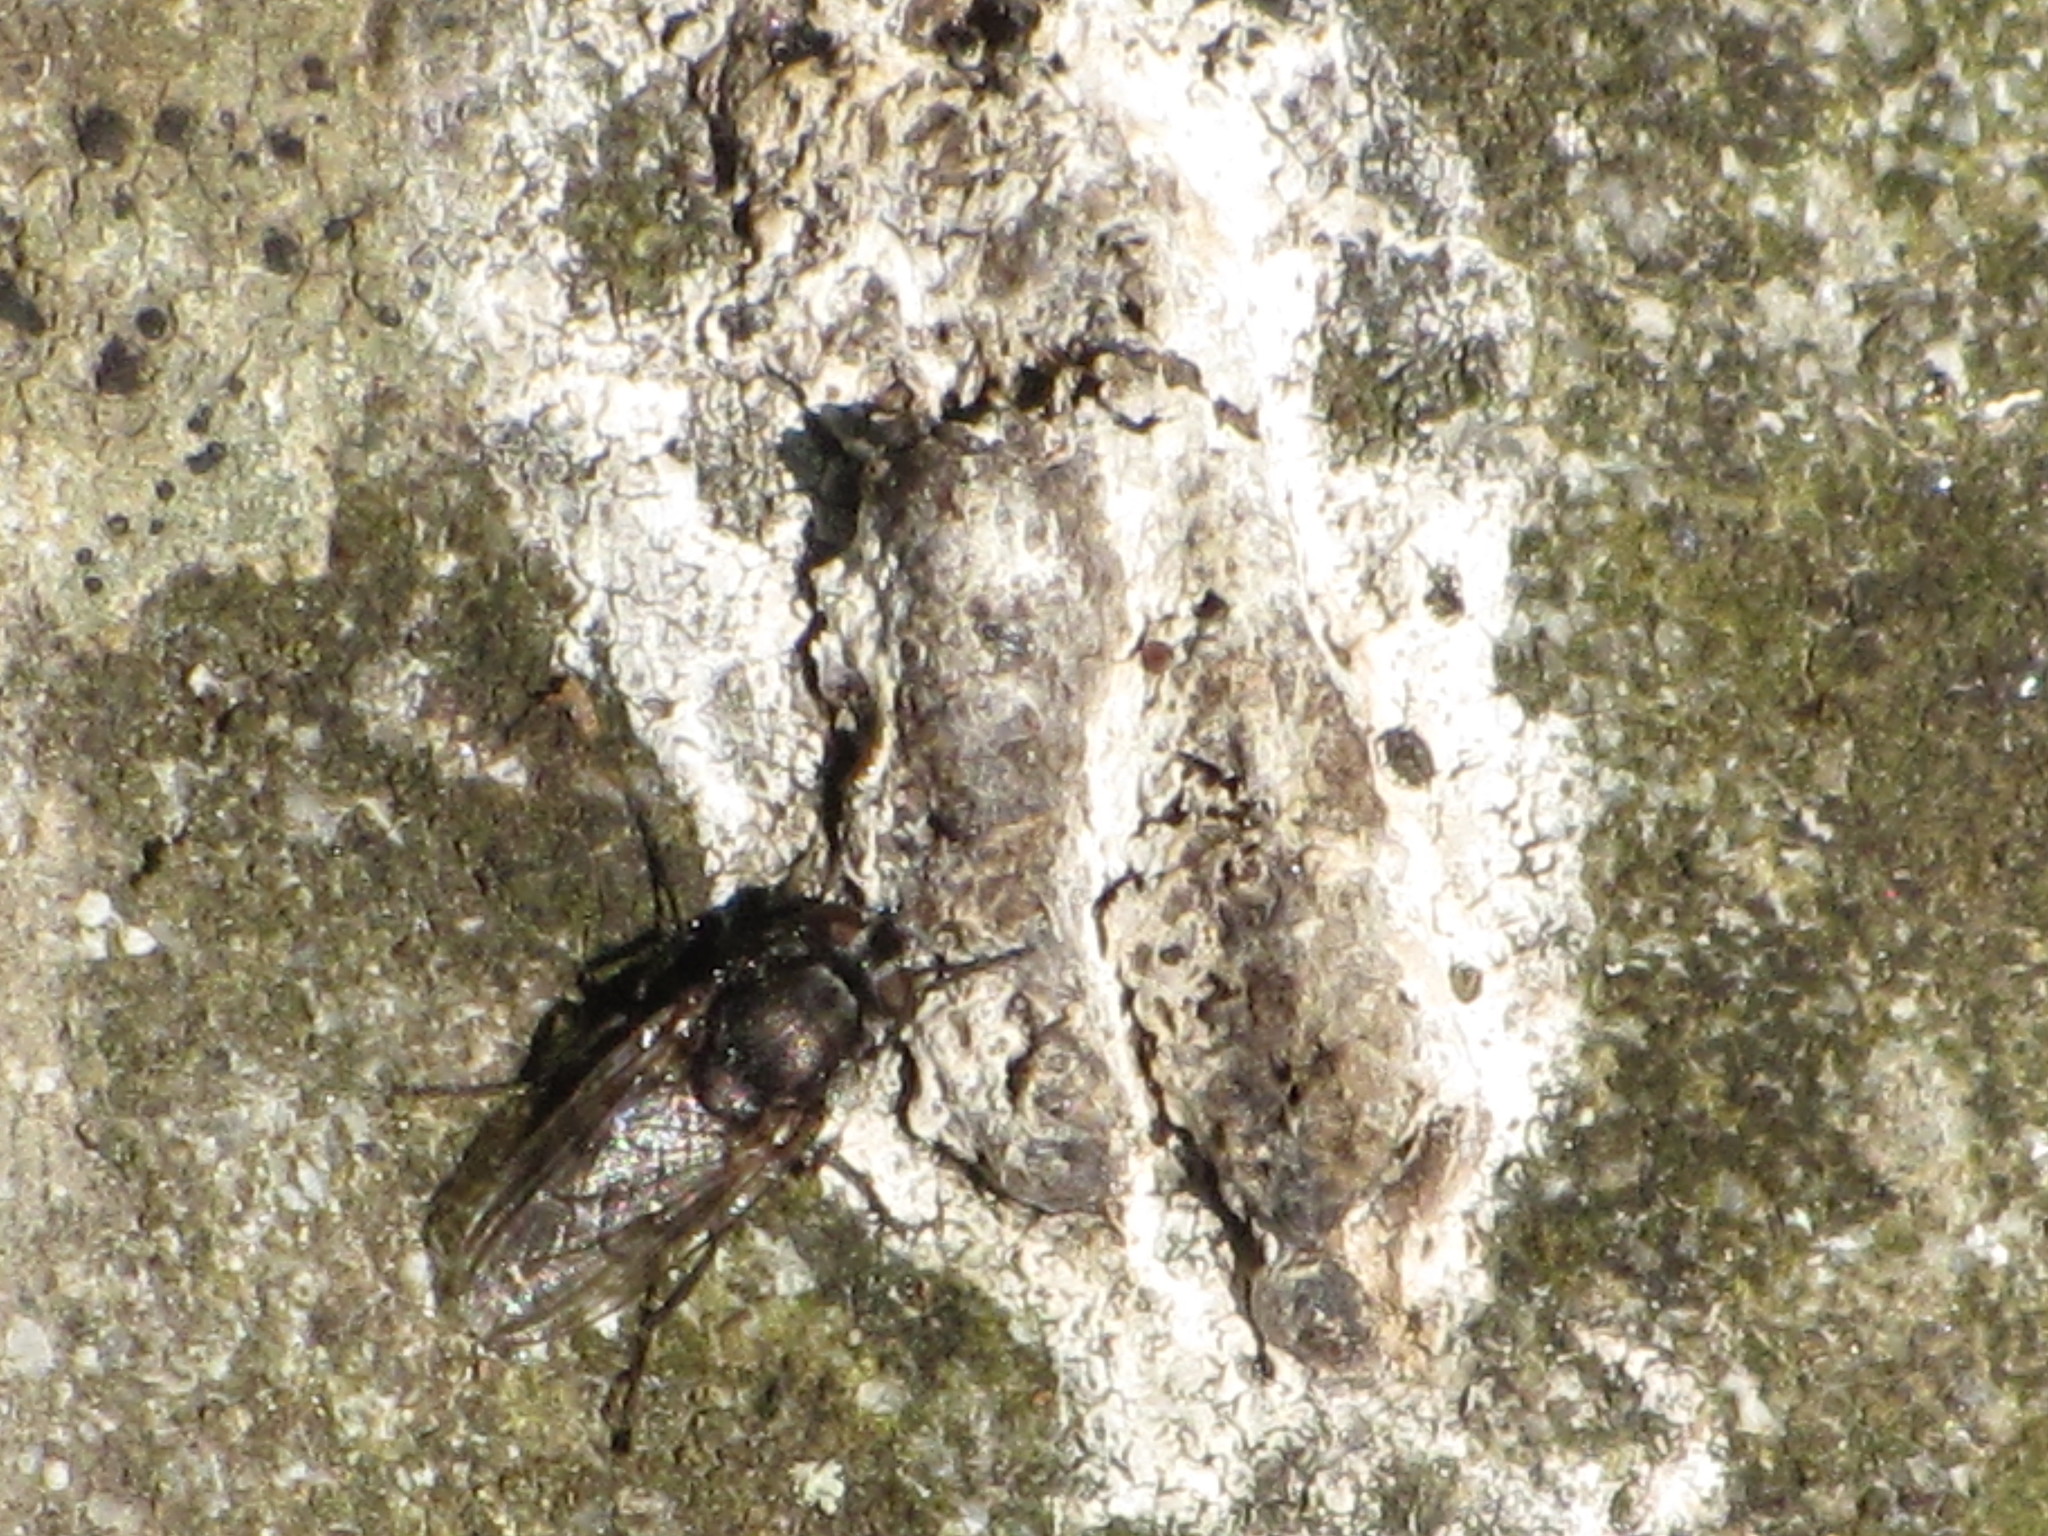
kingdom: Animalia
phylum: Arthropoda
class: Insecta
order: Diptera
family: Polleniidae
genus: Pollenia
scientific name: Pollenia vagabunda
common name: Vagabund cluster fly
